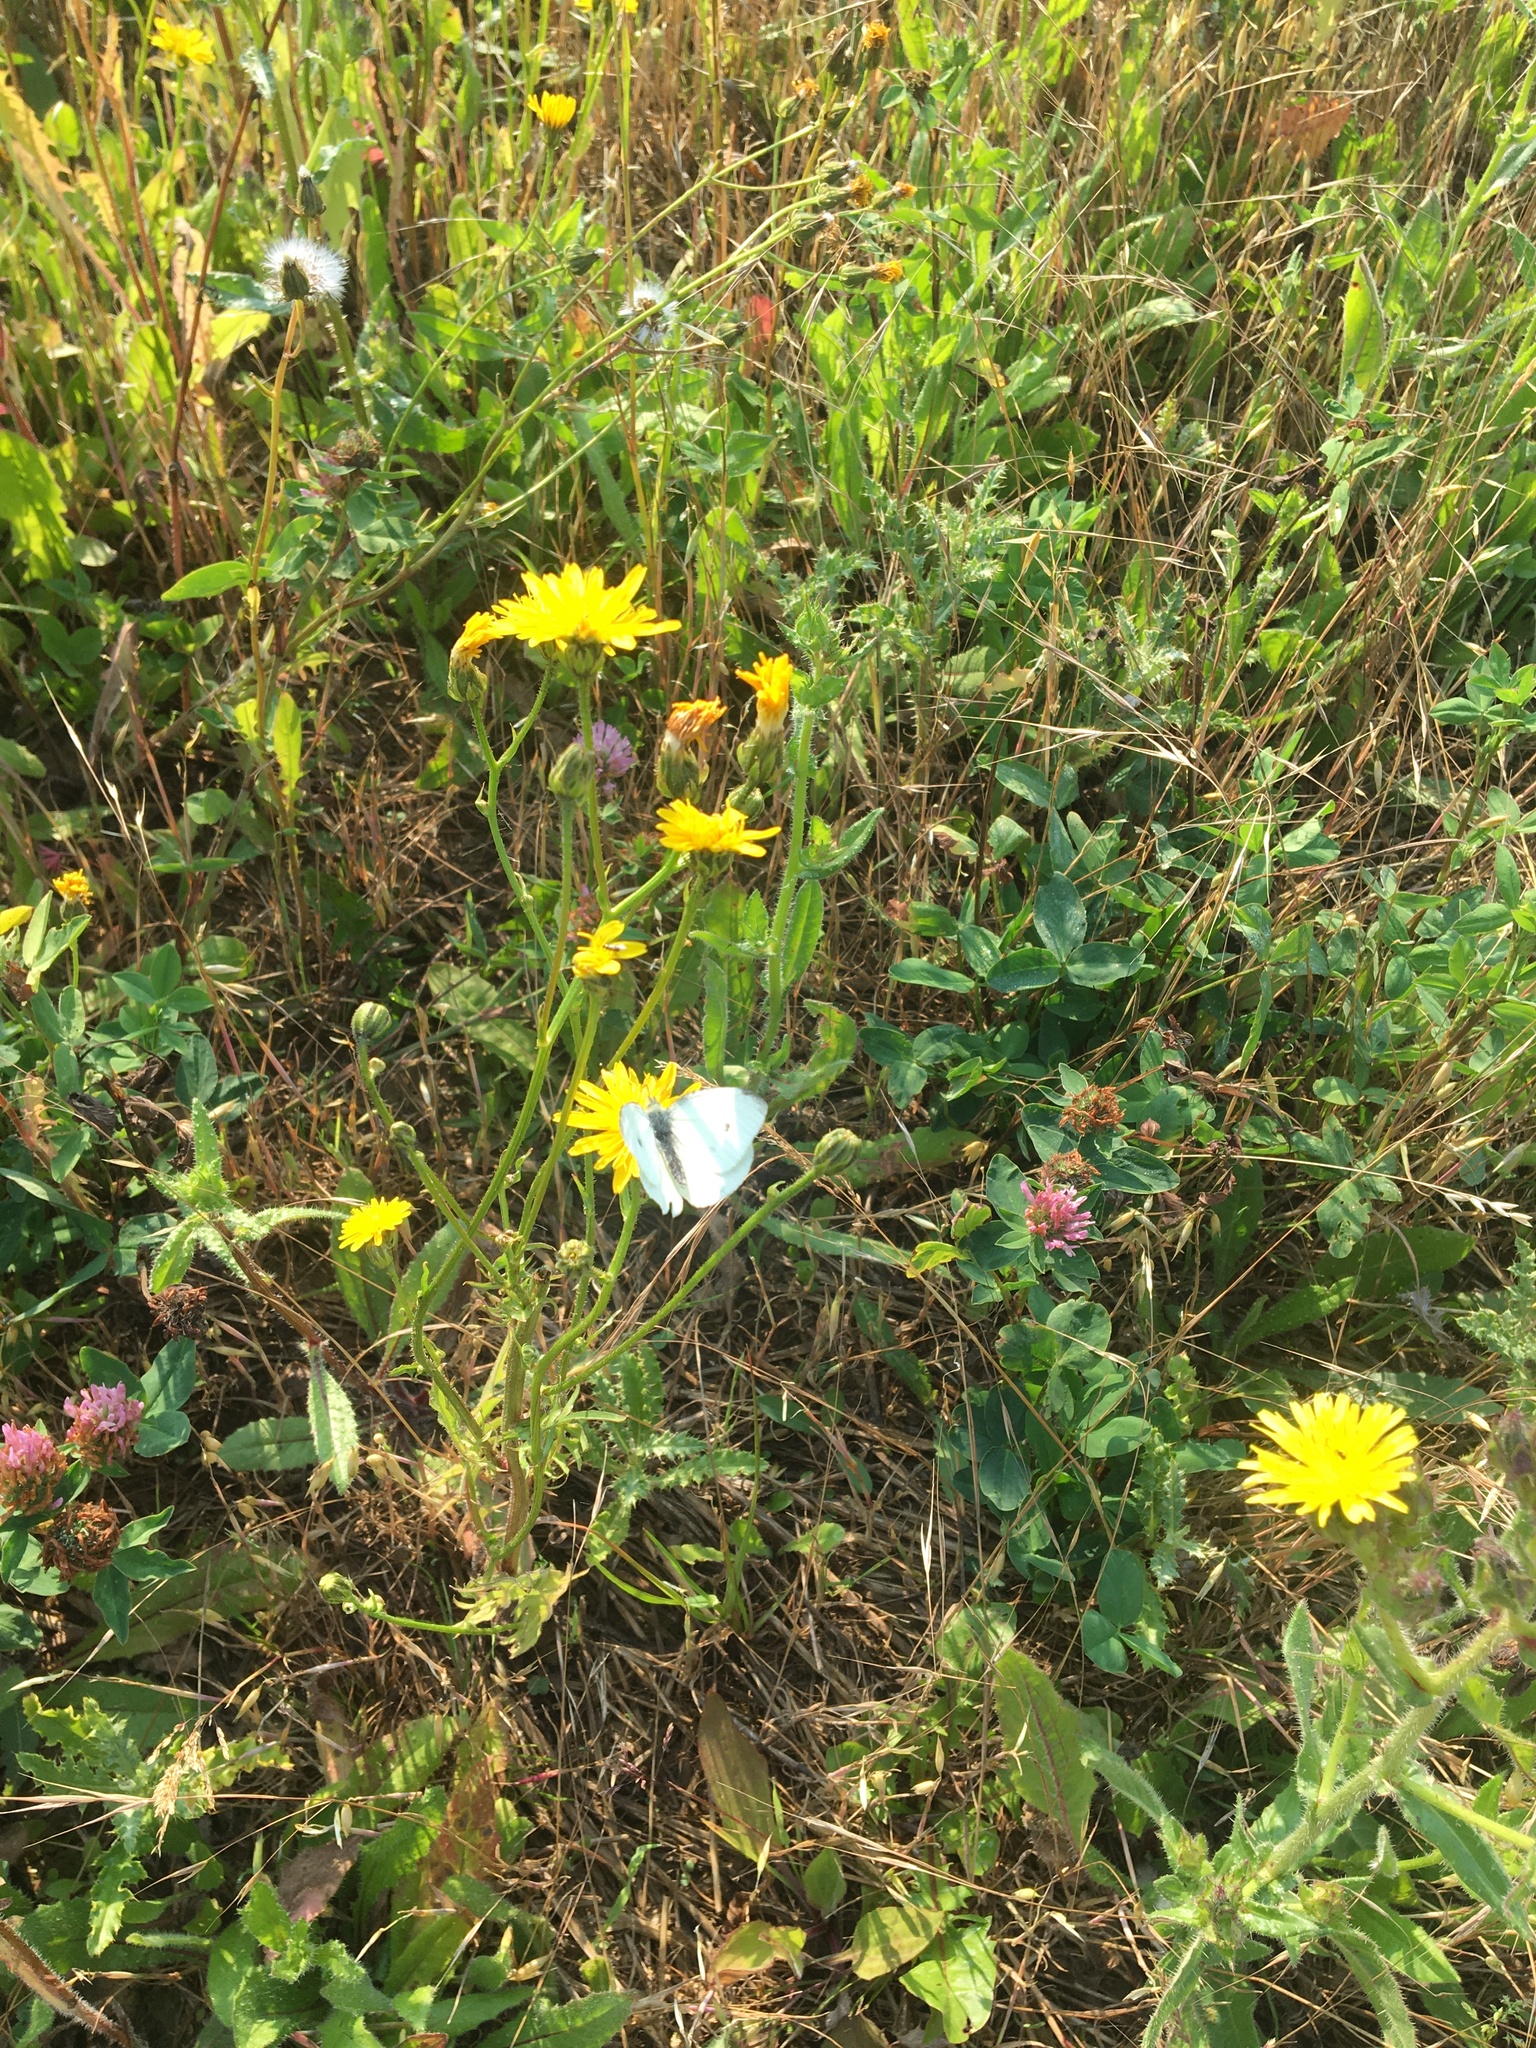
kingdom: Animalia
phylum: Arthropoda
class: Insecta
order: Lepidoptera
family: Pieridae
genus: Pieris
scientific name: Pieris rapae
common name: Small white
